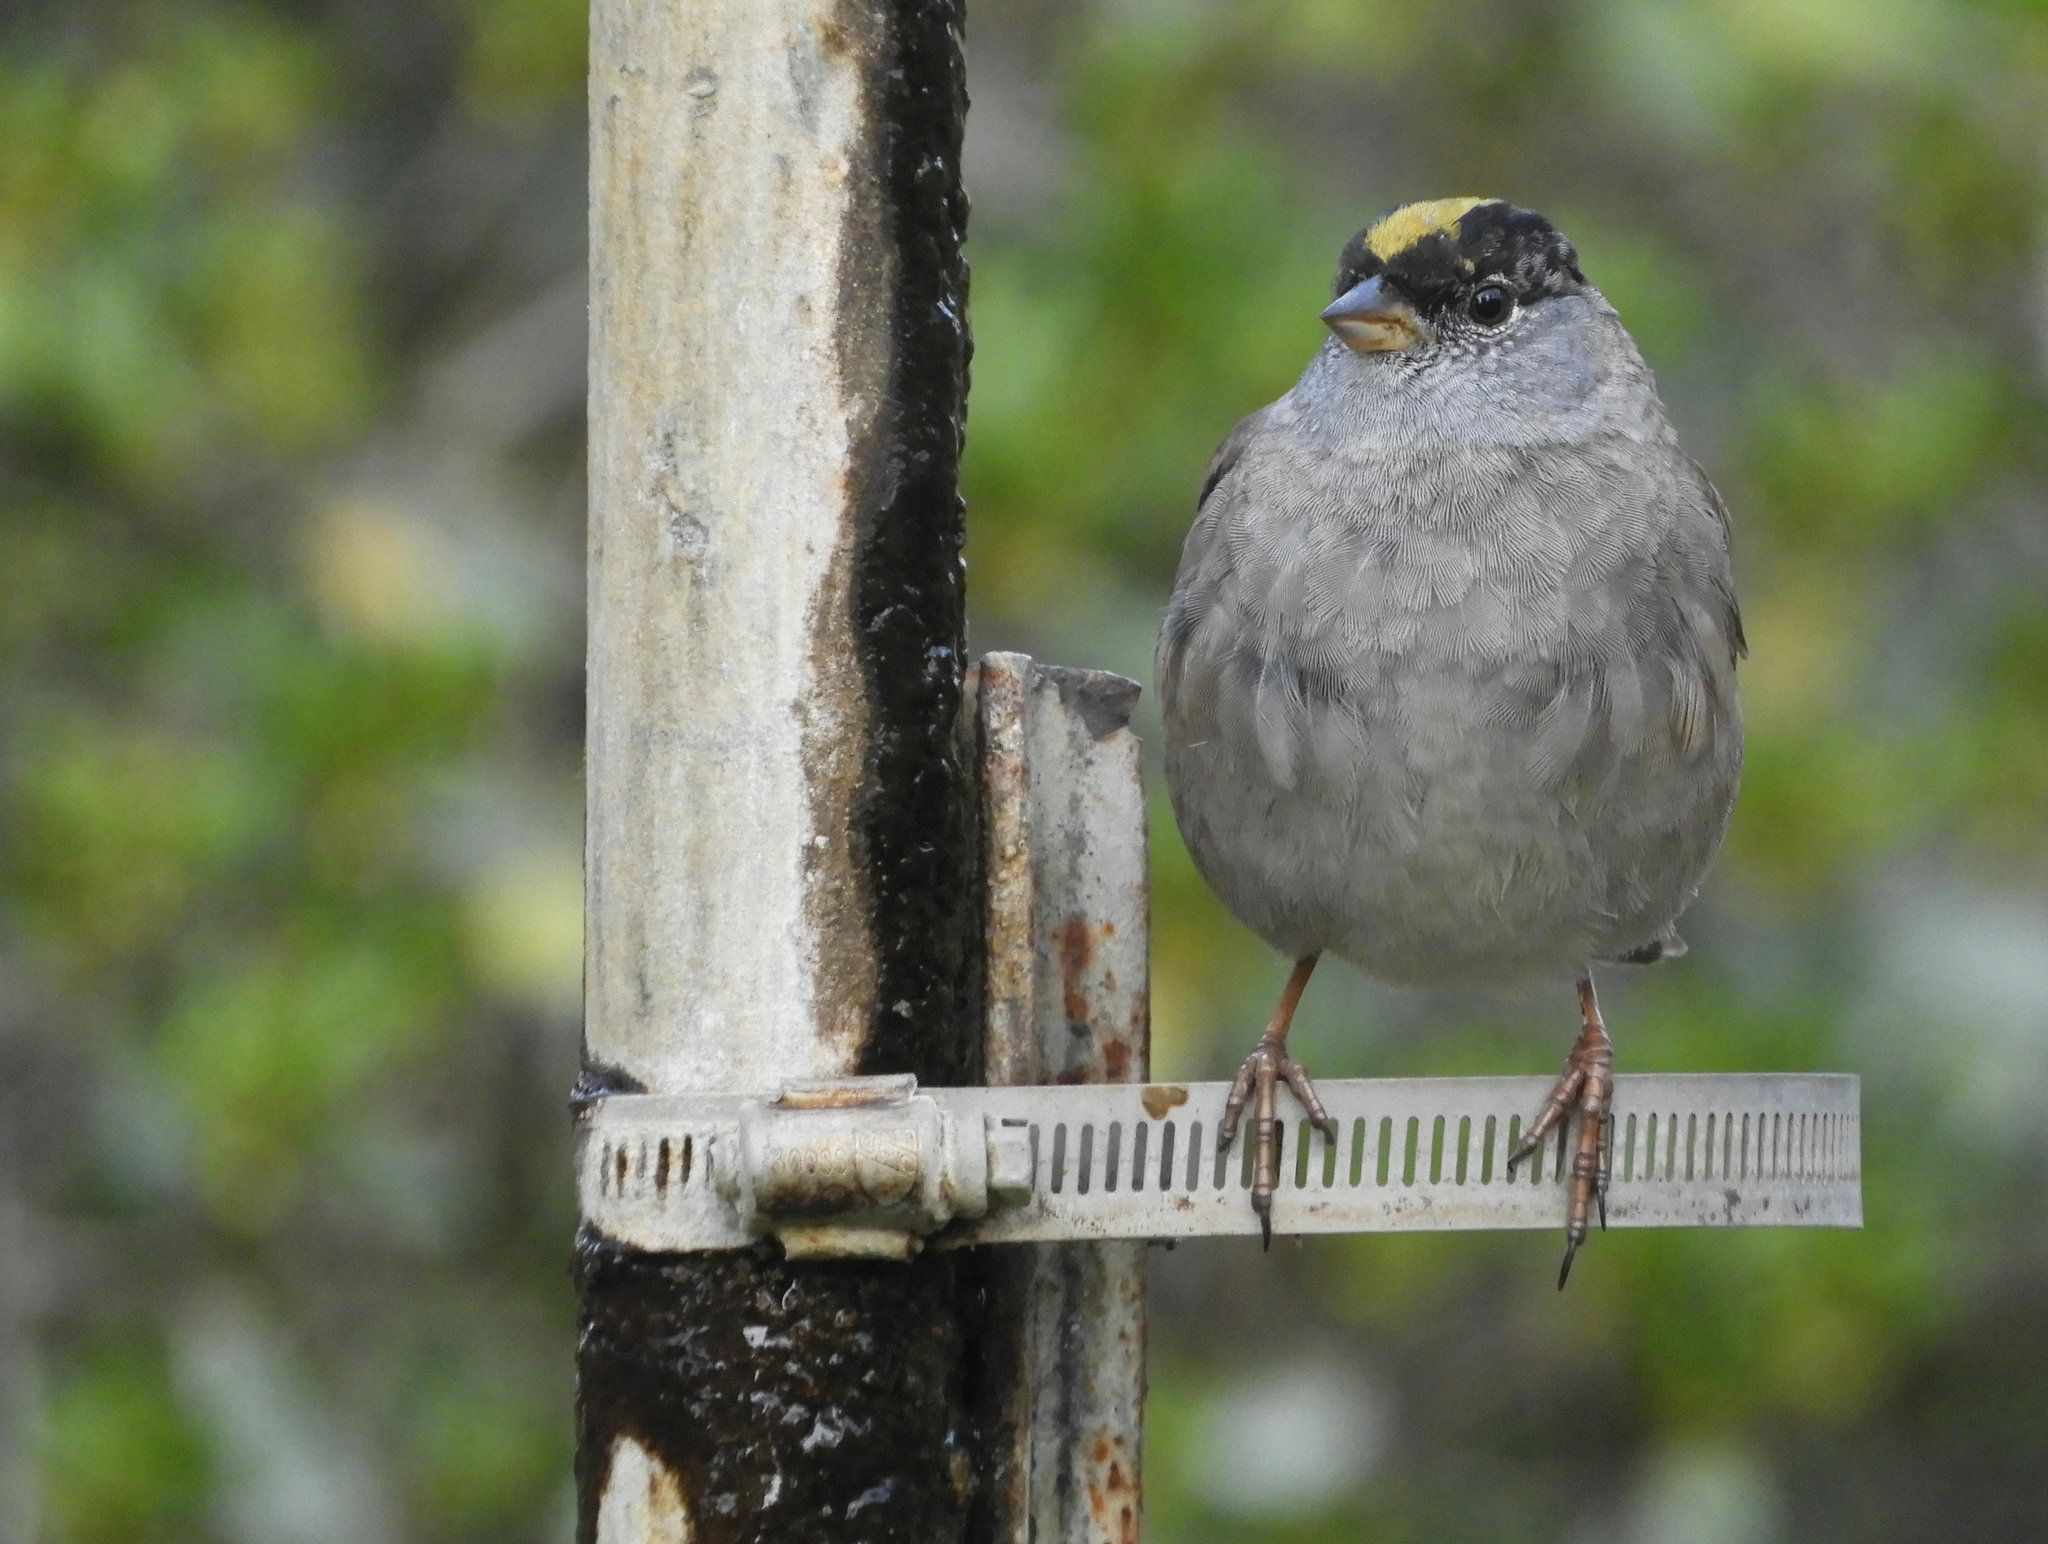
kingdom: Animalia
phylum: Chordata
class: Aves
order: Passeriformes
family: Passerellidae
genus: Zonotrichia
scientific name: Zonotrichia atricapilla
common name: Golden-crowned sparrow
